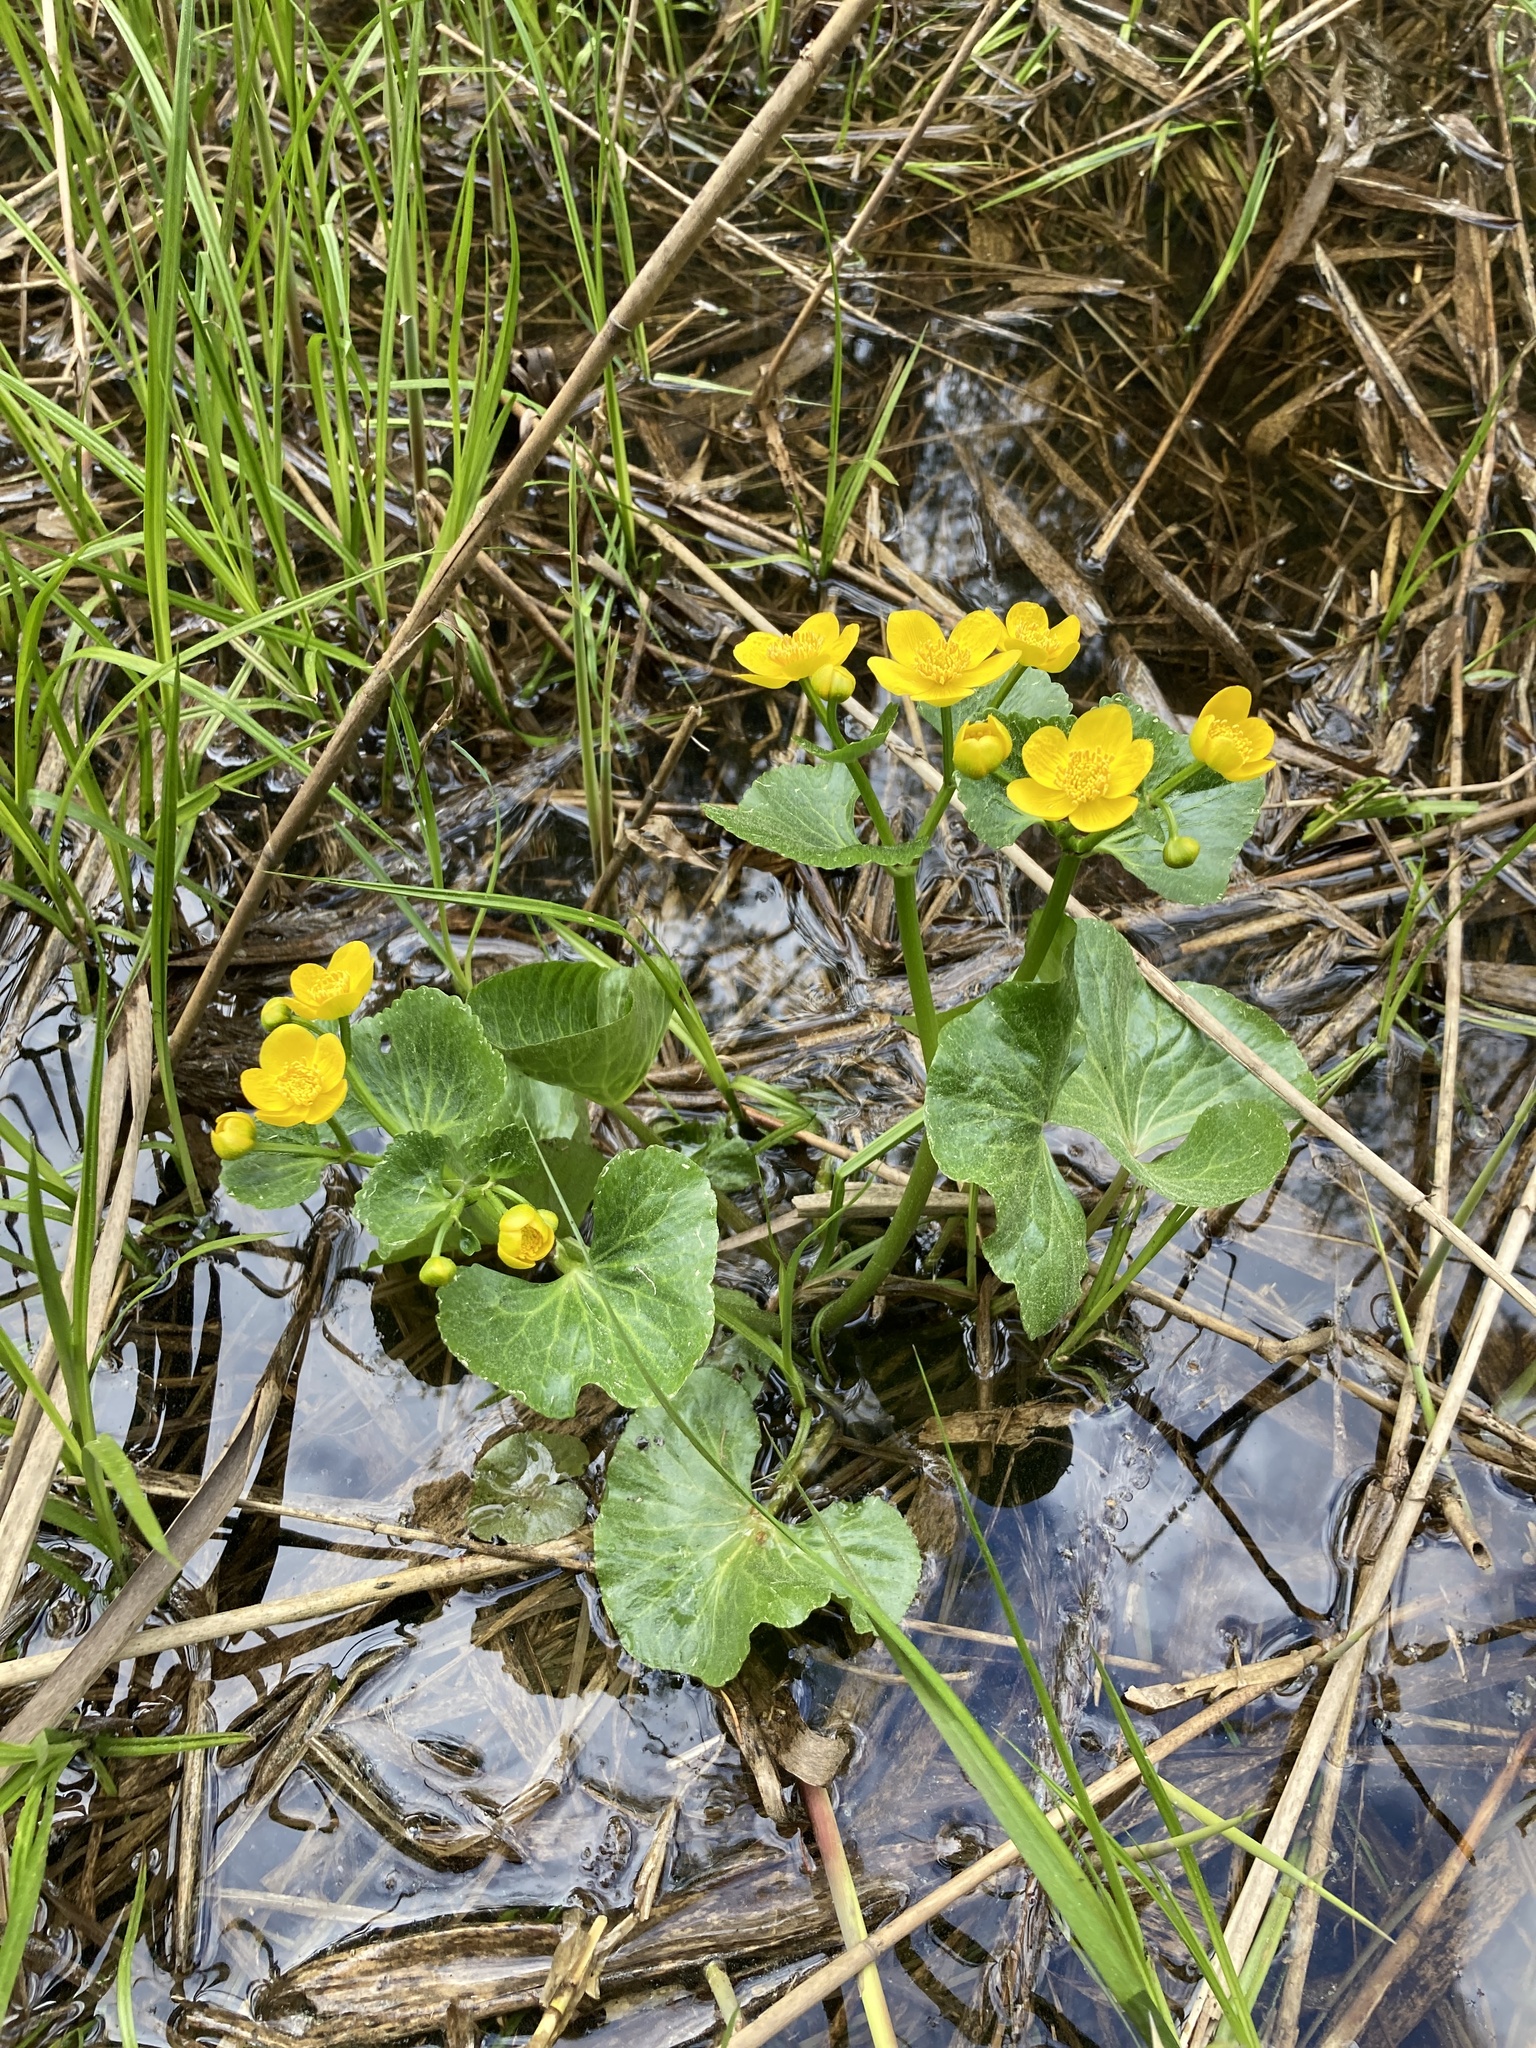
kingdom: Plantae
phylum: Tracheophyta
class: Magnoliopsida
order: Ranunculales
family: Ranunculaceae
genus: Caltha
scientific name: Caltha palustris
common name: Marsh marigold
